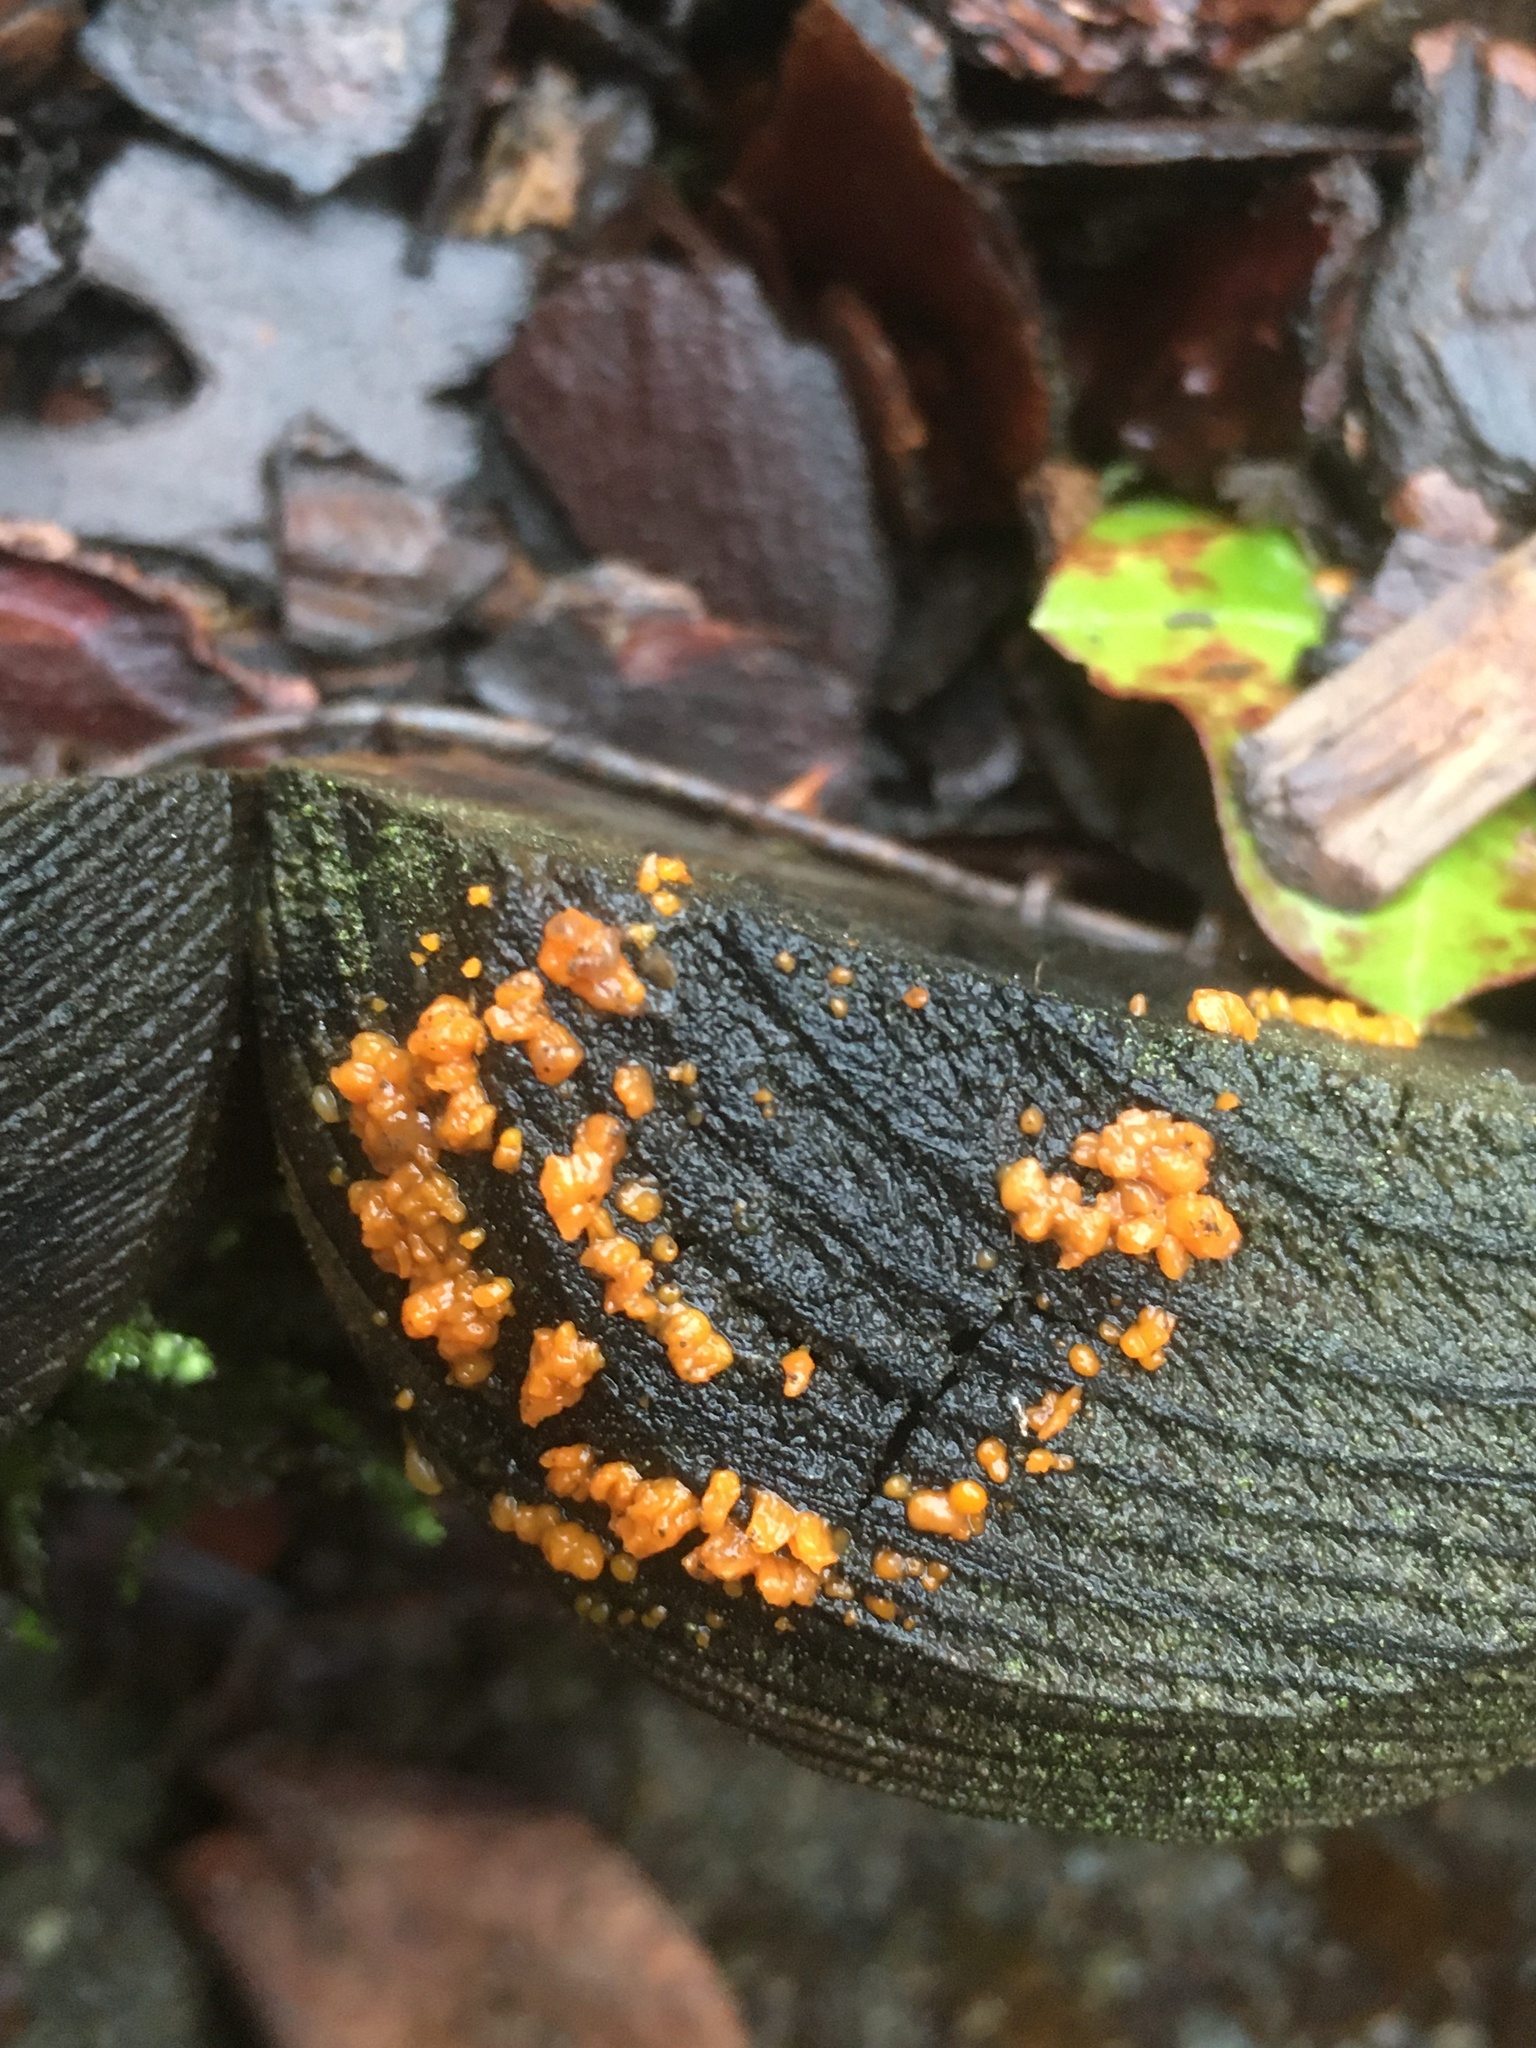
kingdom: Fungi
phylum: Basidiomycota
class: Dacrymycetes
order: Dacrymycetales
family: Dacrymycetaceae
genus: Dacrymyces
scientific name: Dacrymyces stillatus
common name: Common jelly spot
